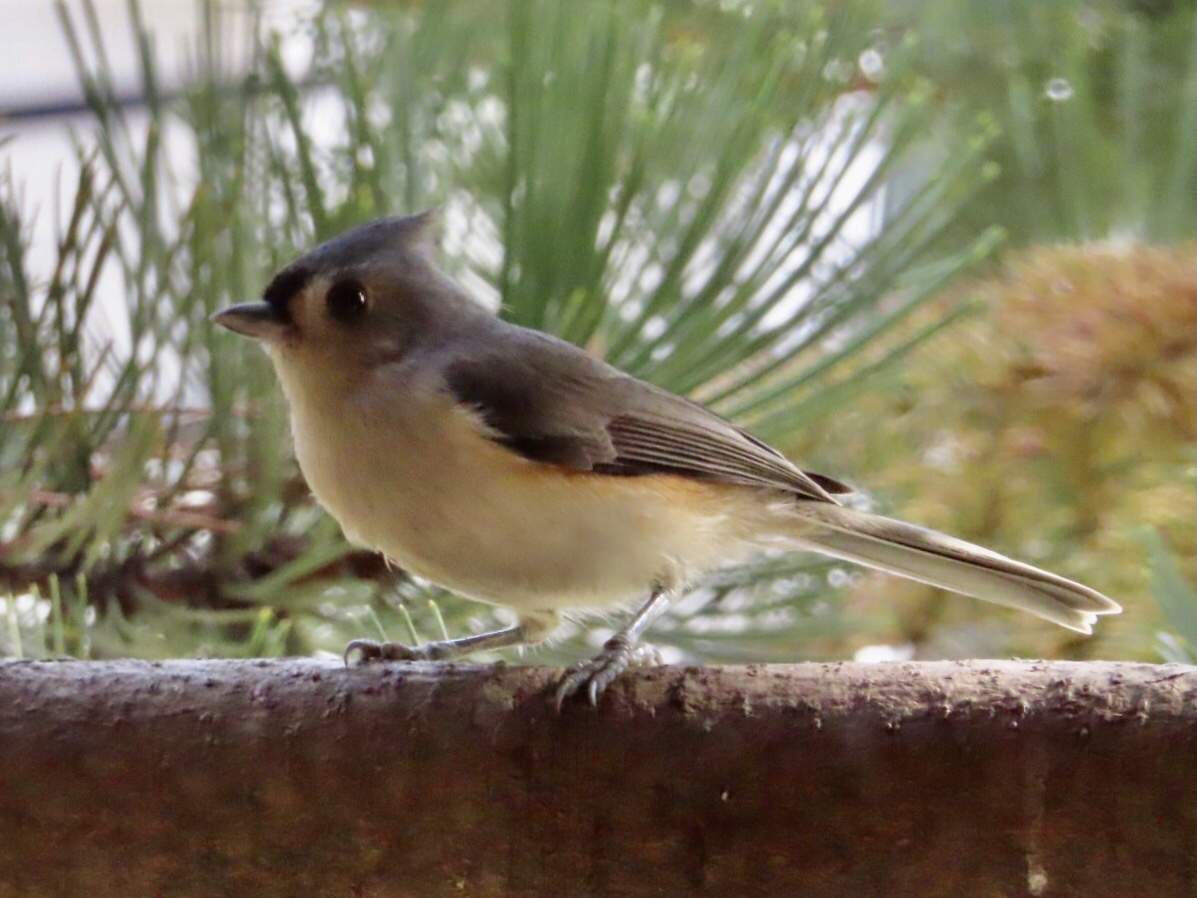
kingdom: Animalia
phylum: Chordata
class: Aves
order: Passeriformes
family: Paridae
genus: Baeolophus
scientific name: Baeolophus bicolor
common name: Tufted titmouse
